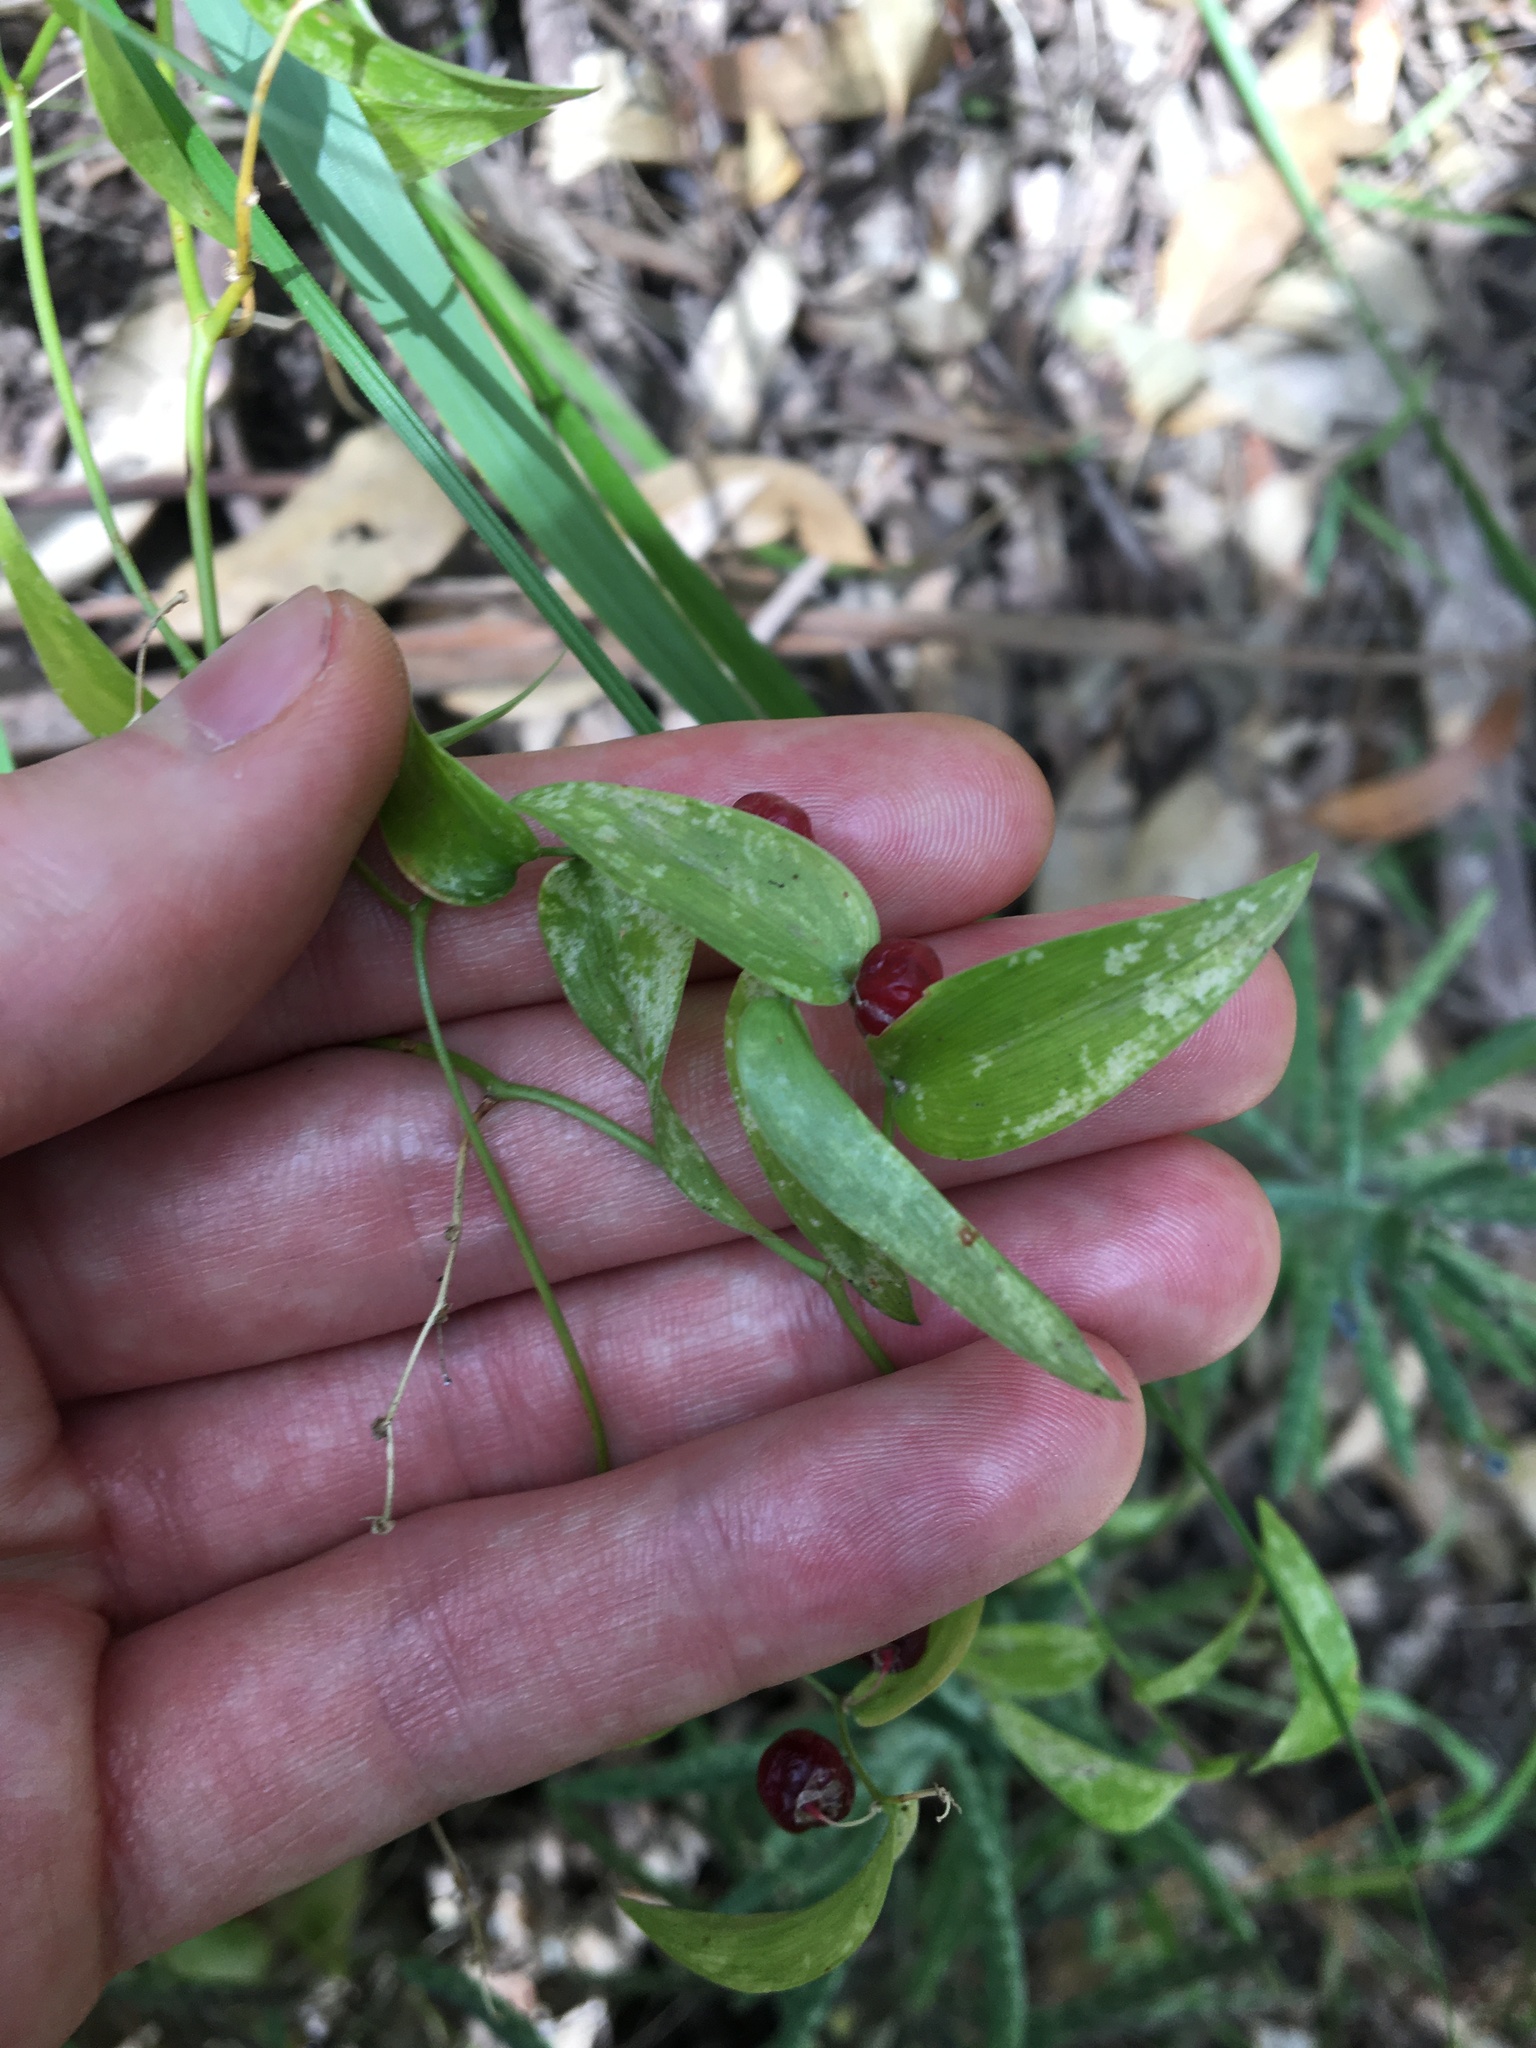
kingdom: Plantae
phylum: Tracheophyta
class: Liliopsida
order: Asparagales
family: Asparagaceae
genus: Asparagus
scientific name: Asparagus asparagoides
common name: African asparagus fern
